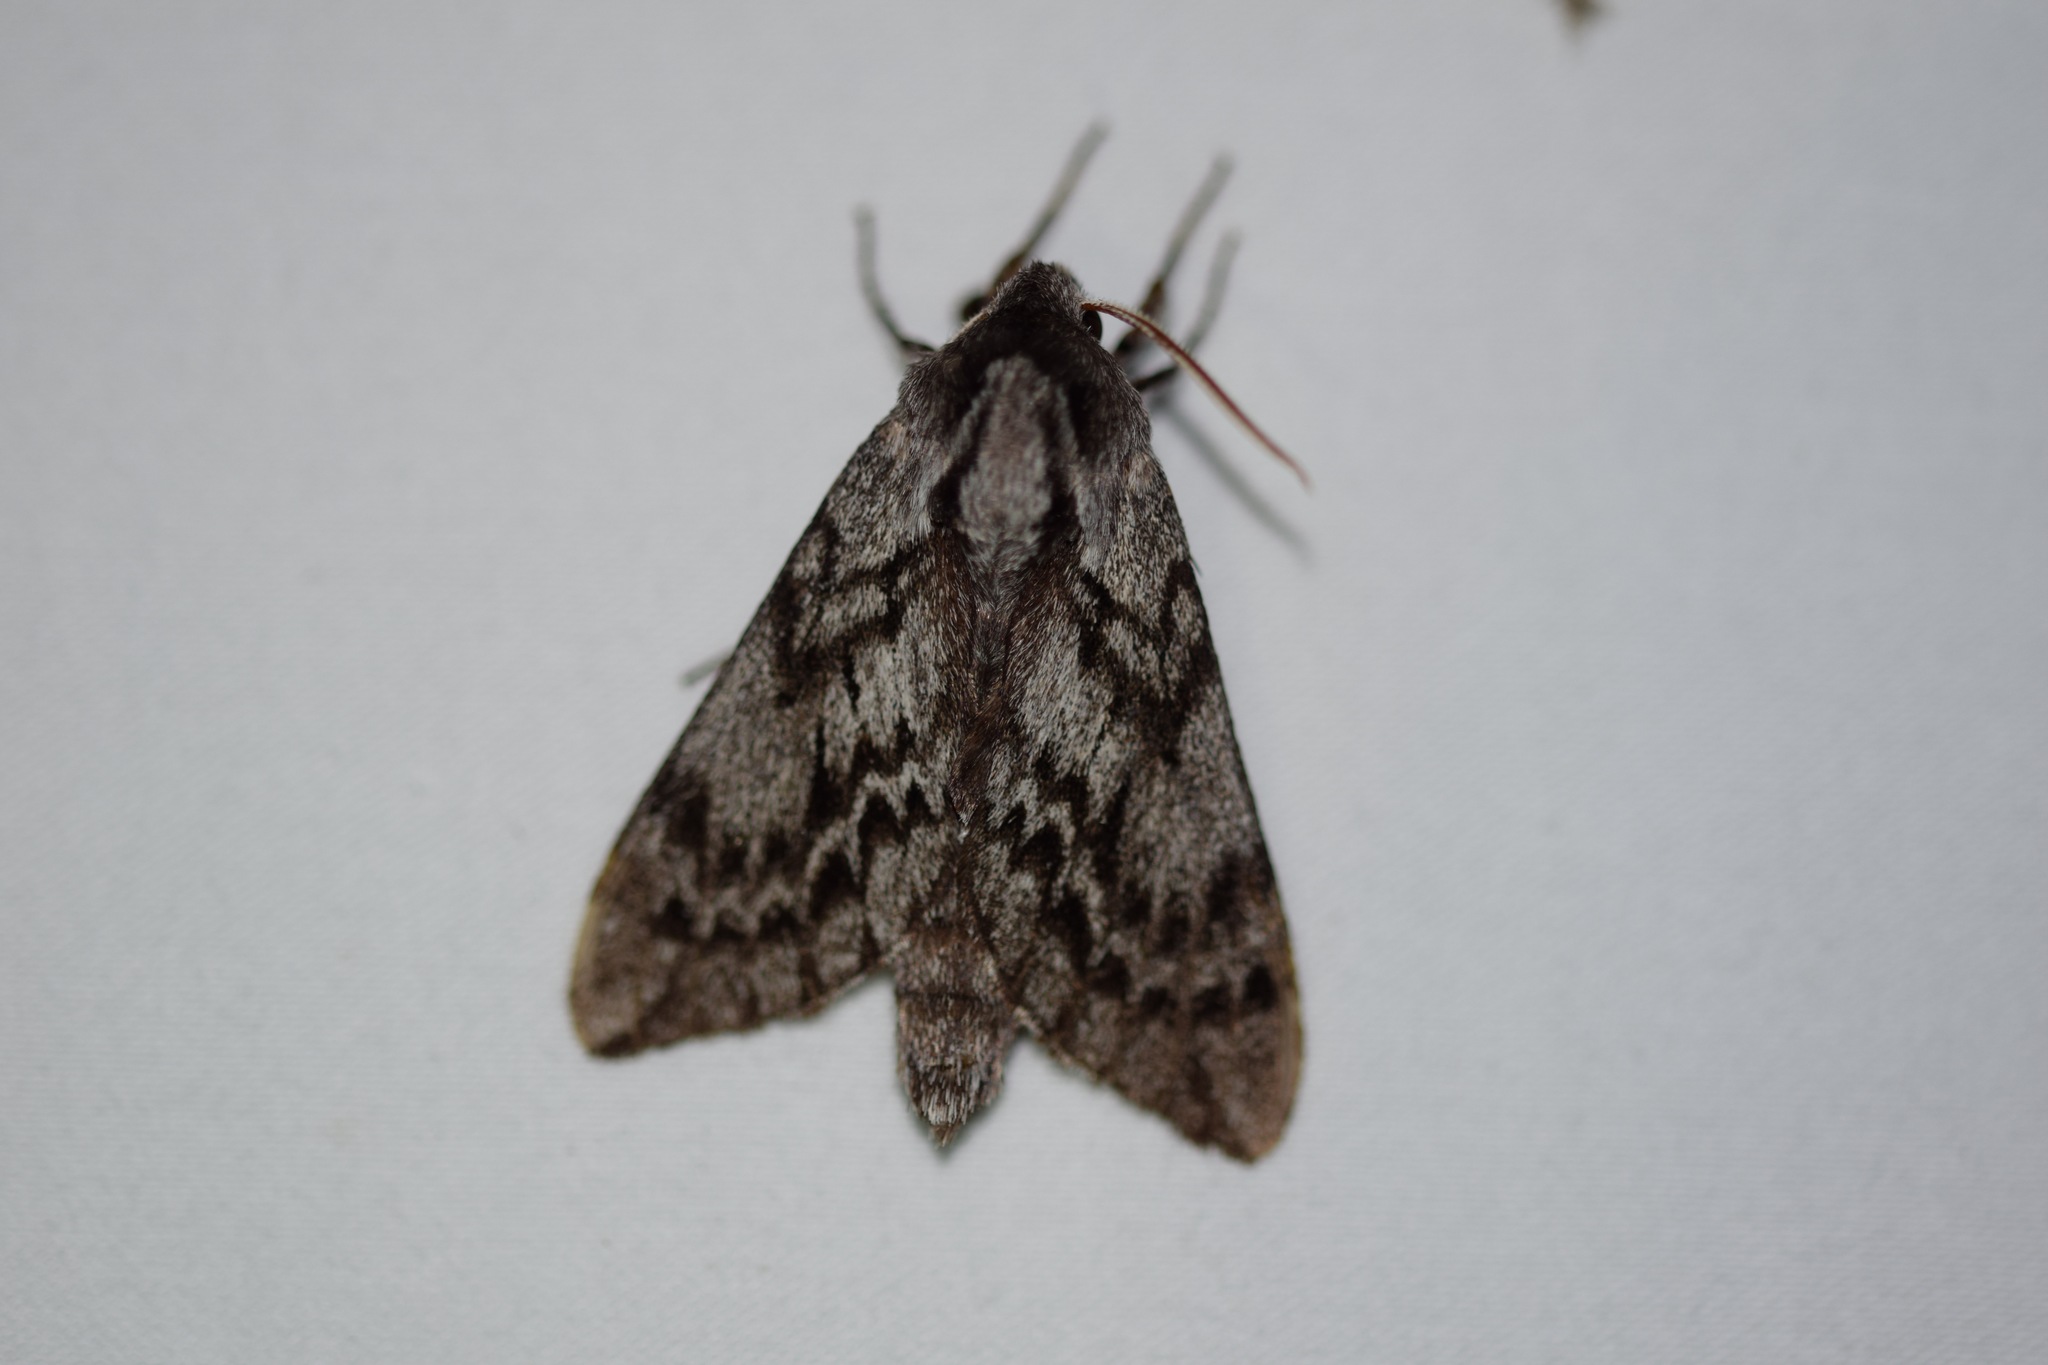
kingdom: Animalia
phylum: Arthropoda
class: Insecta
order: Lepidoptera
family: Sphingidae
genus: Lapara
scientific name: Lapara bombycoides
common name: Northern pine sphinx
